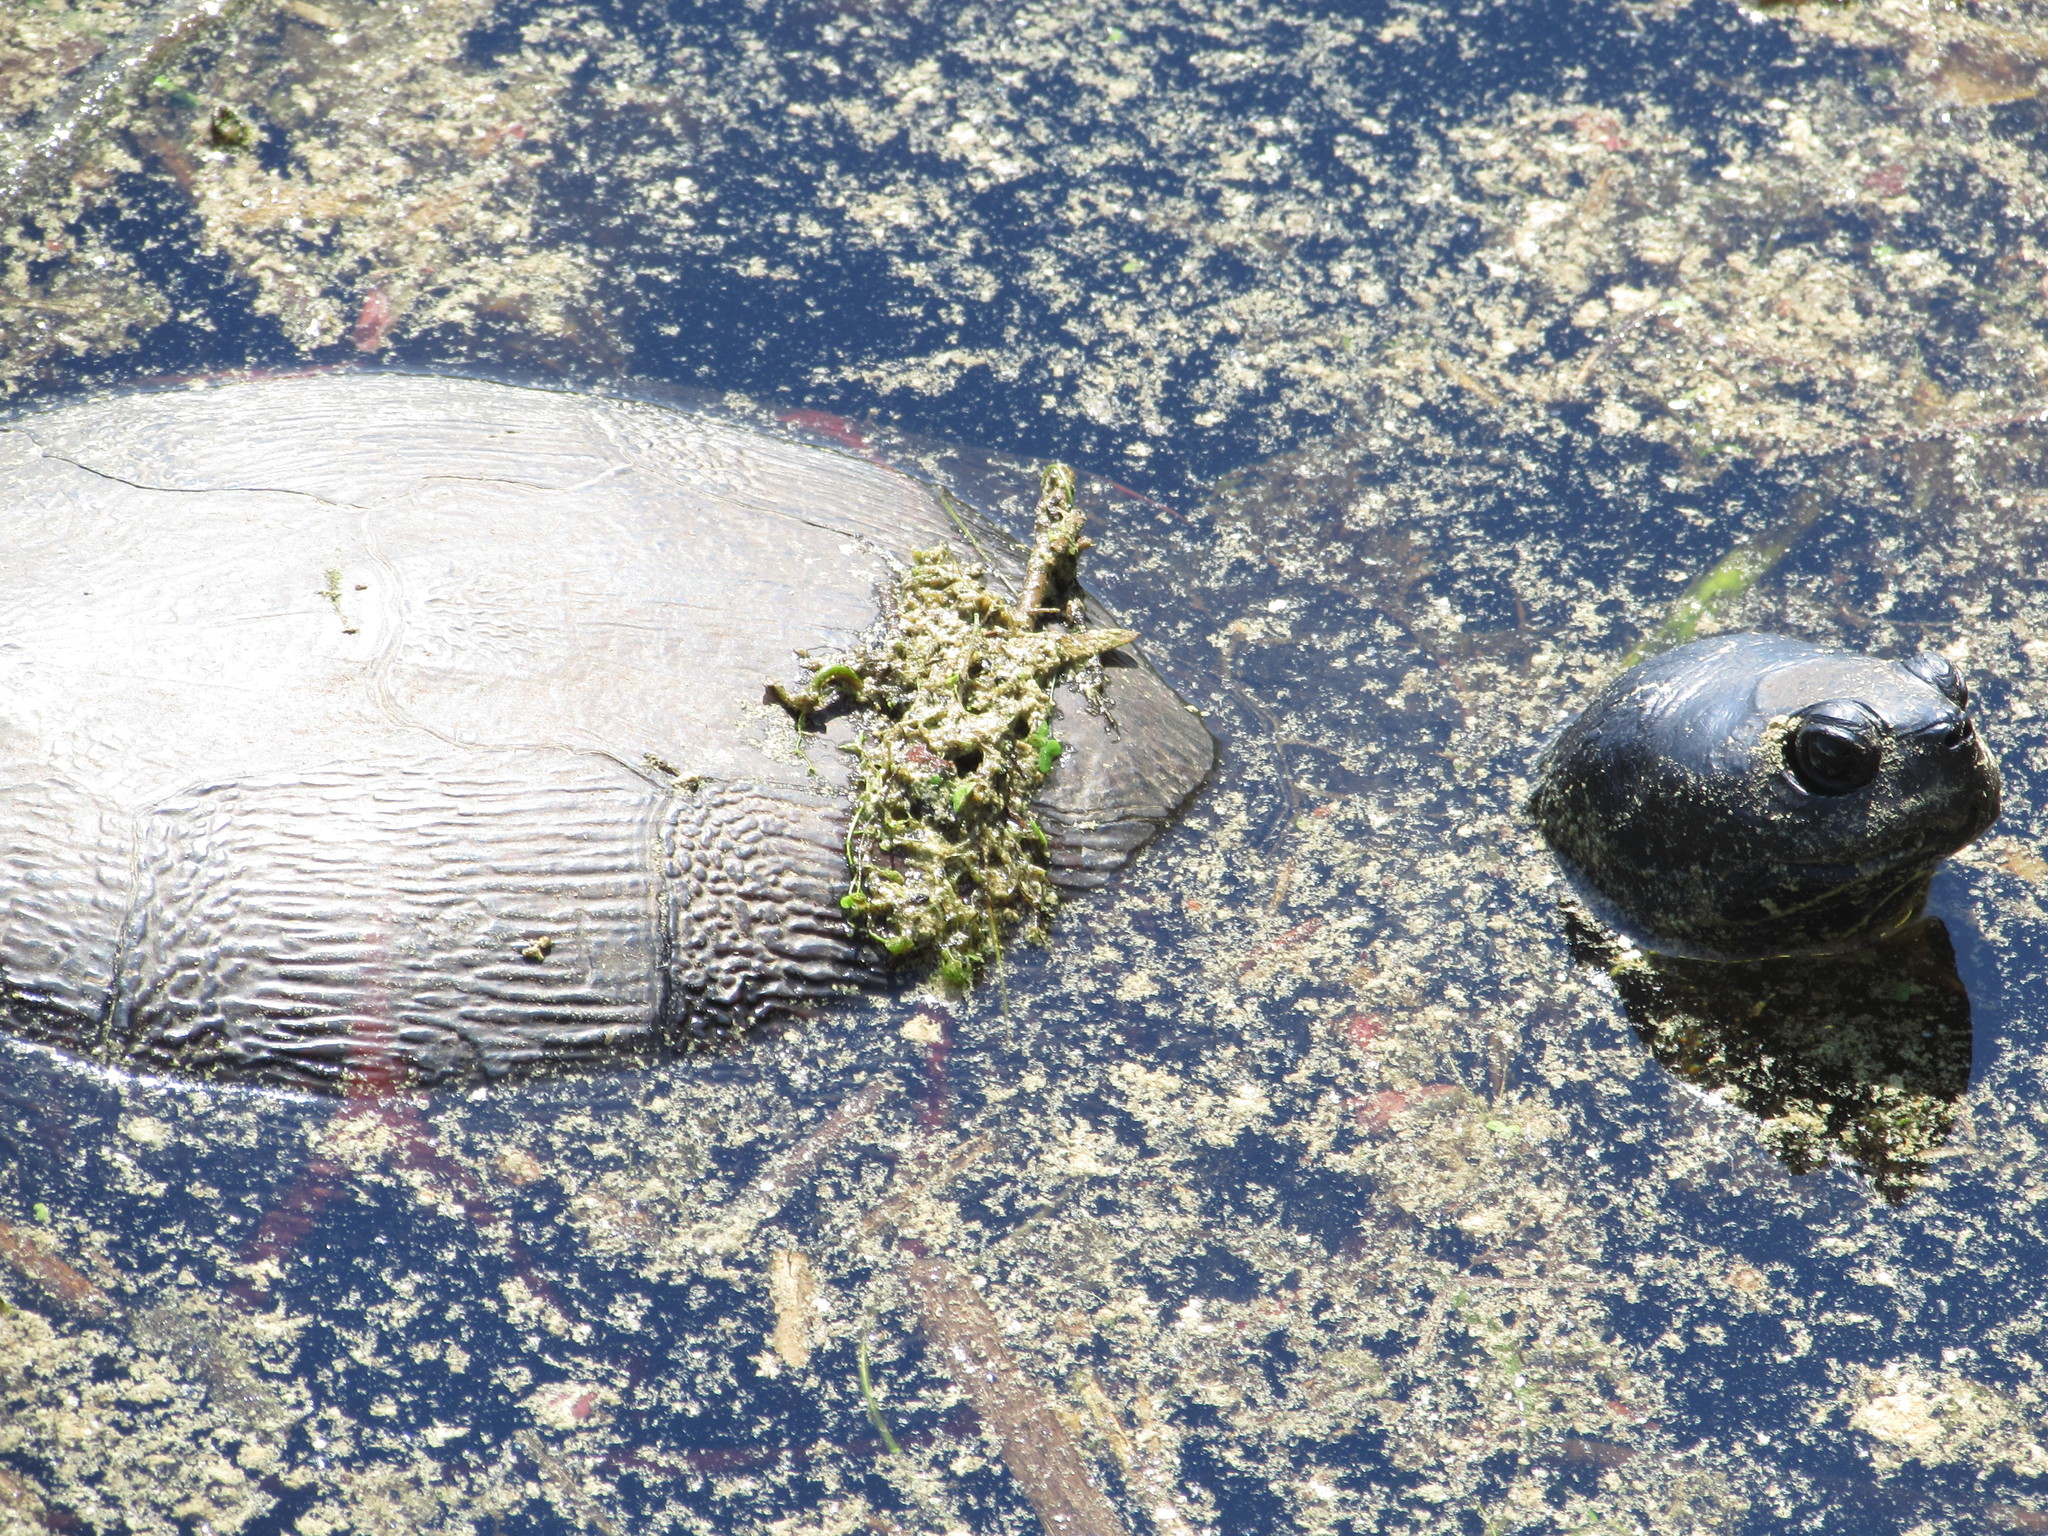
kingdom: Animalia
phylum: Chordata
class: Testudines
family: Emydidae
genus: Pseudemys
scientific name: Pseudemys rubriventris
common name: American red-bellied turtle
